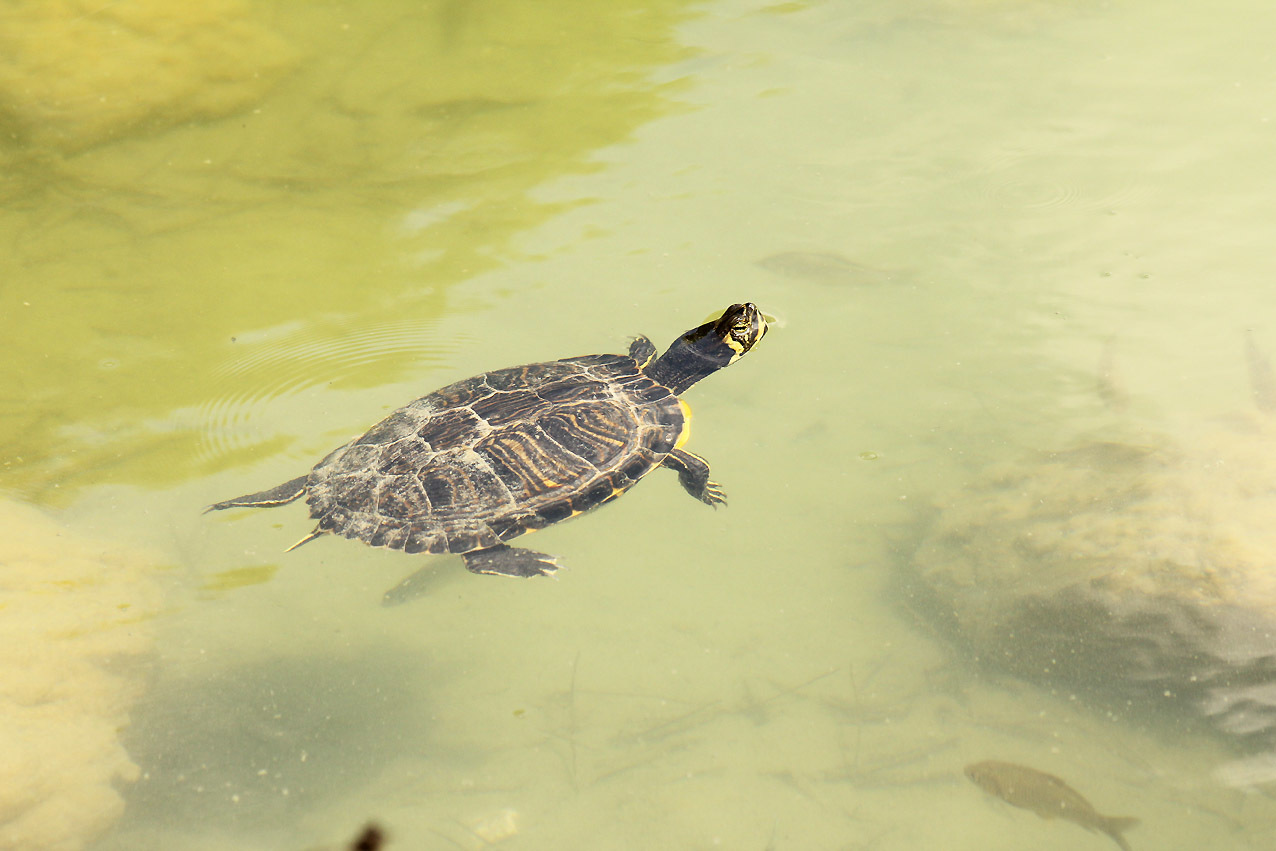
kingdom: Animalia
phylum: Chordata
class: Testudines
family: Emydidae
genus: Trachemys
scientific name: Trachemys scripta
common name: Slider
